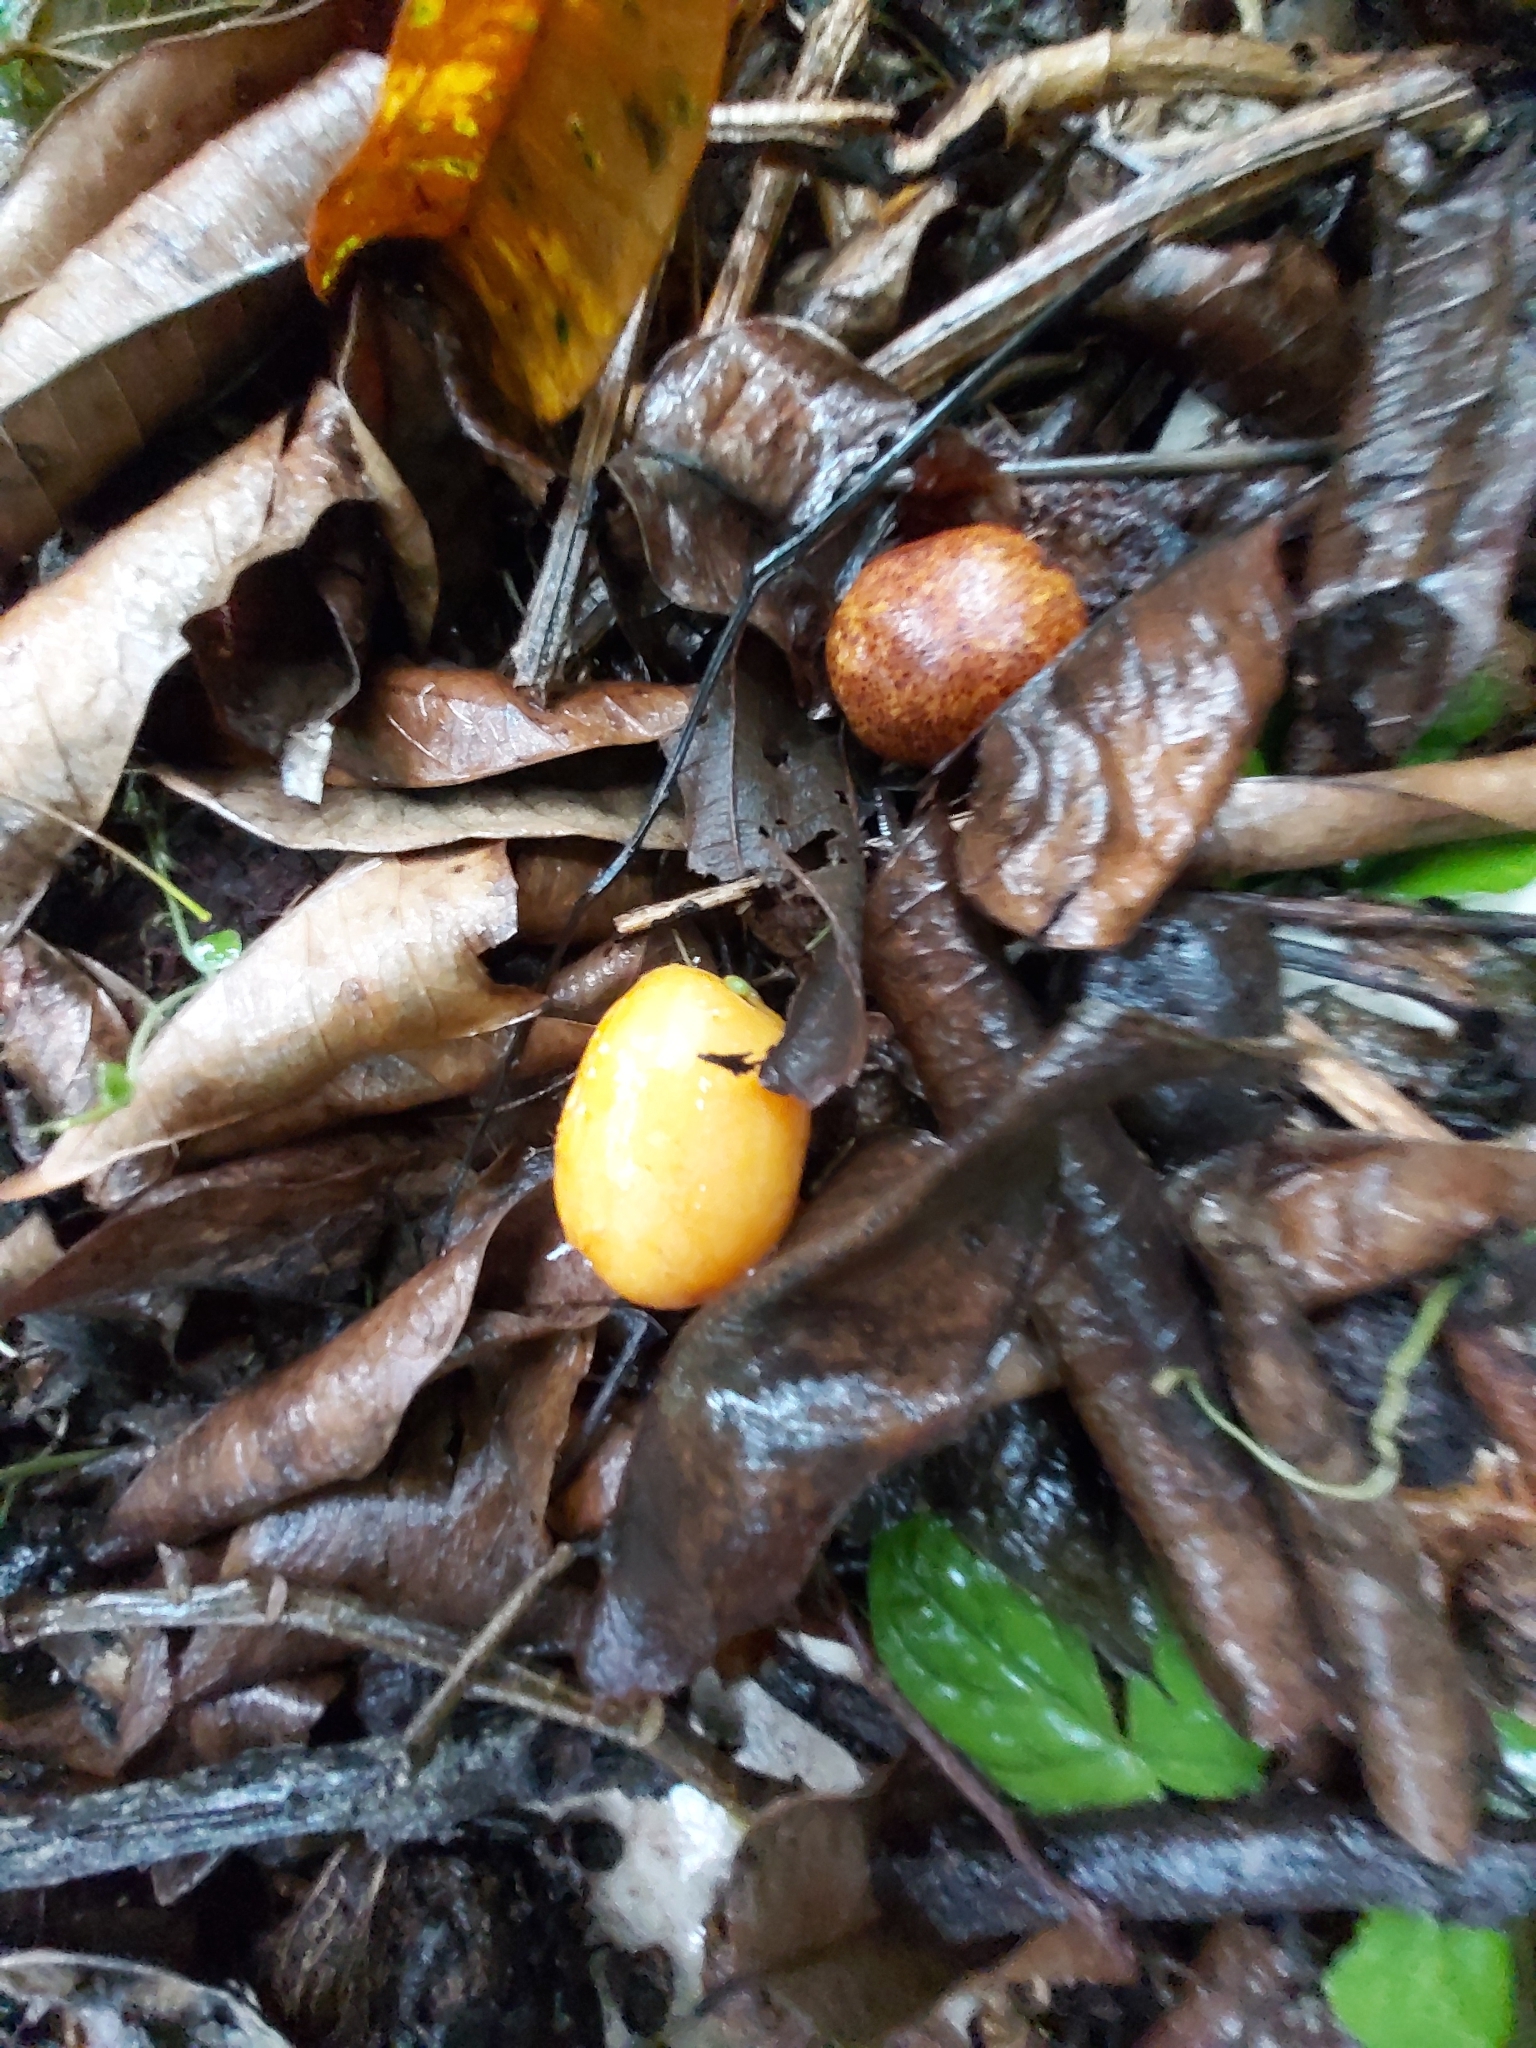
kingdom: Plantae
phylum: Tracheophyta
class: Magnoliopsida
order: Sapindales
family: Anacardiaceae
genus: Spondias
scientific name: Spondias mombin
